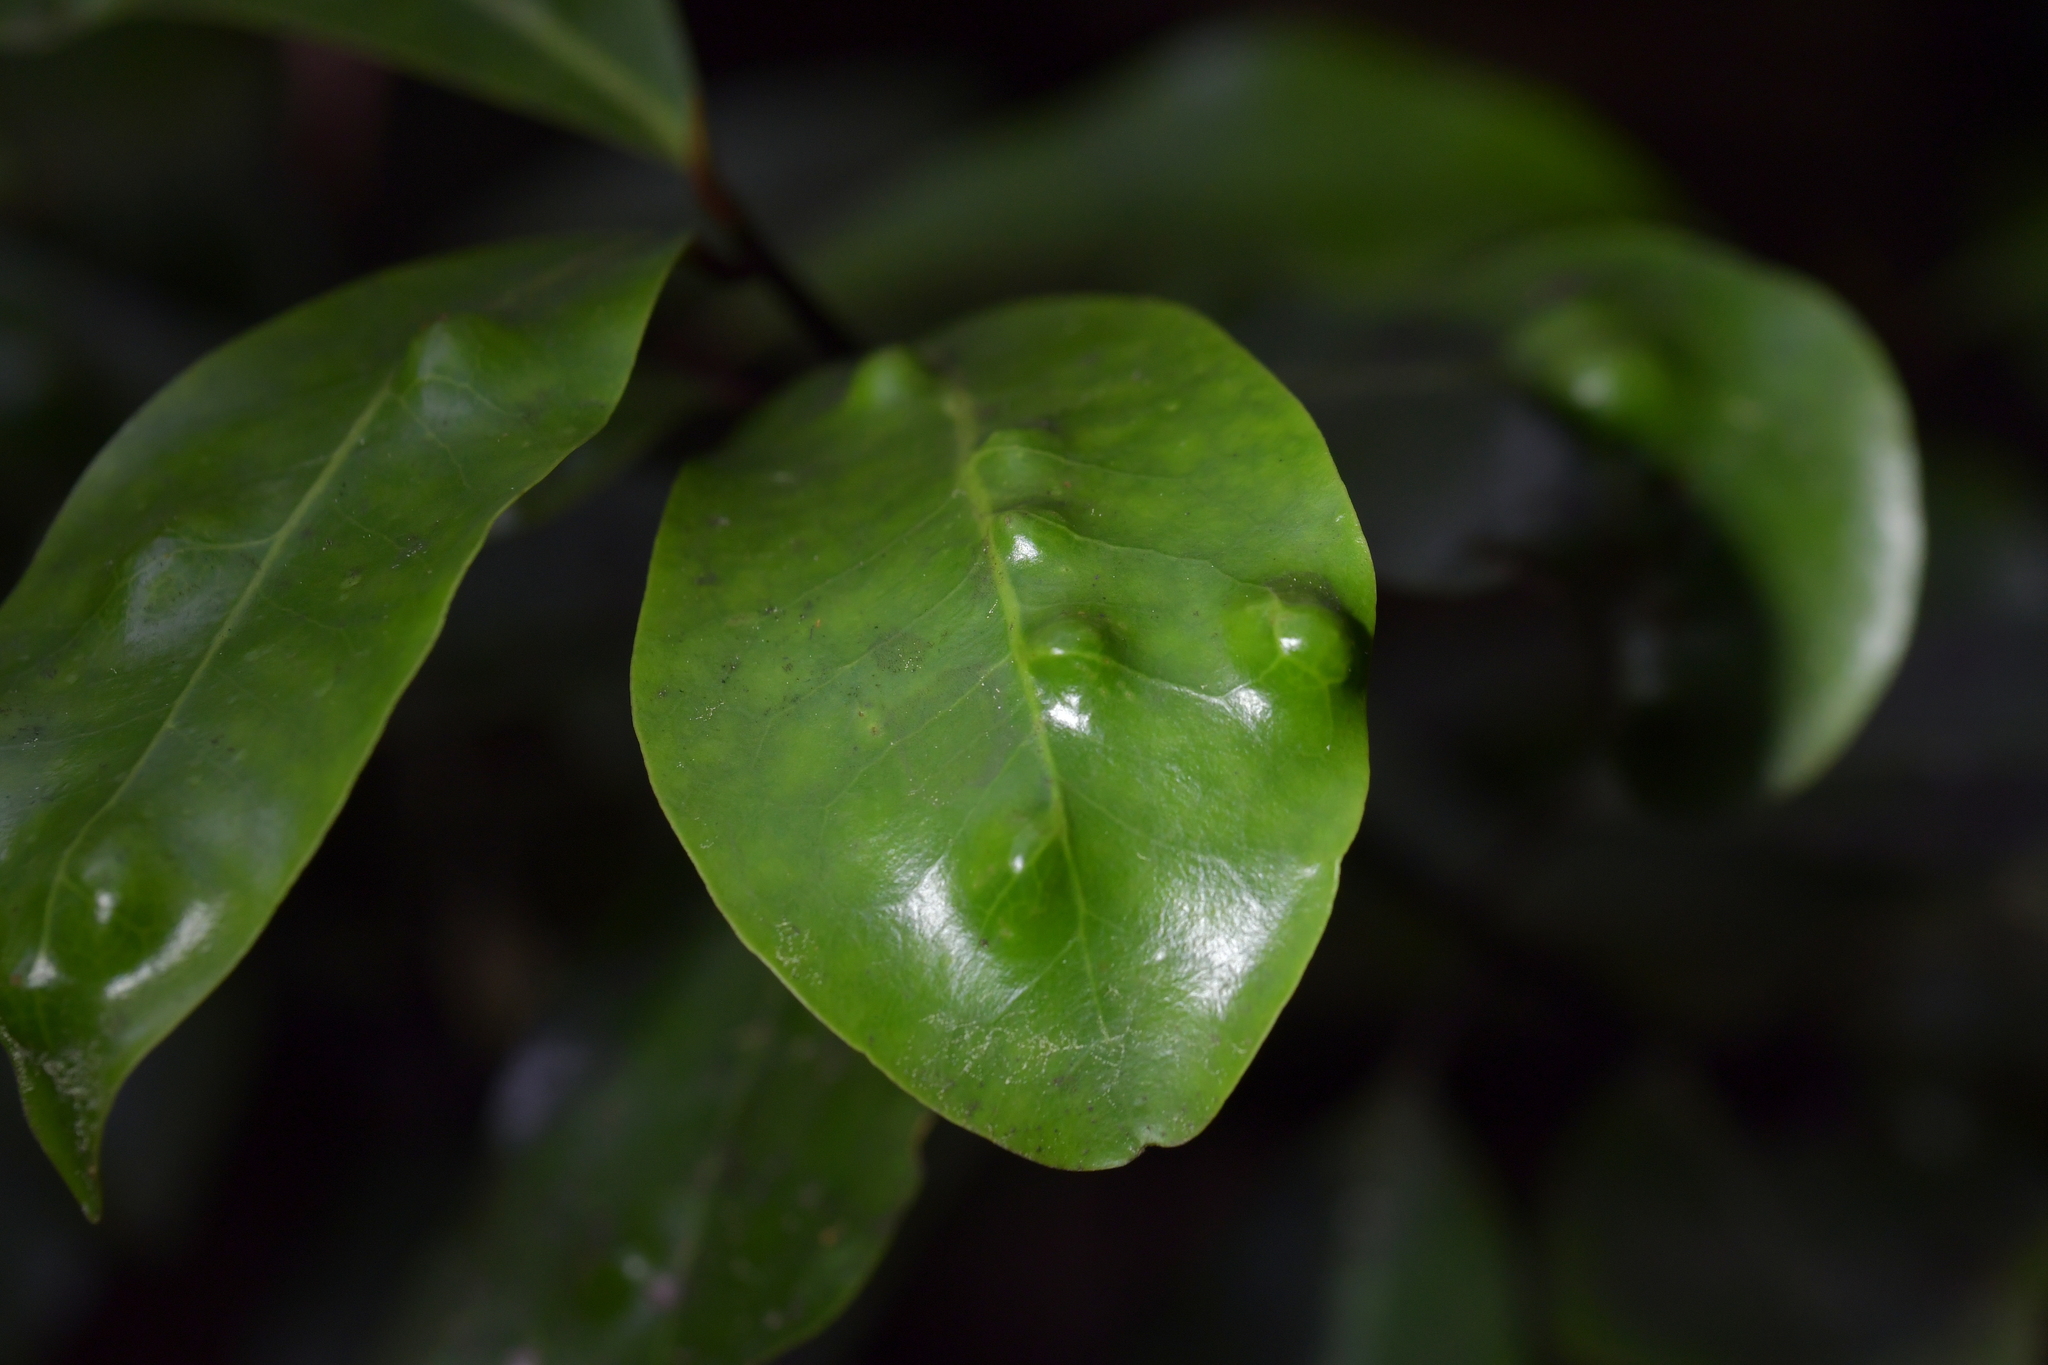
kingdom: Plantae
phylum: Tracheophyta
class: Magnoliopsida
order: Canellales
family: Winteraceae
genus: Pseudowintera
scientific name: Pseudowintera axillaris
